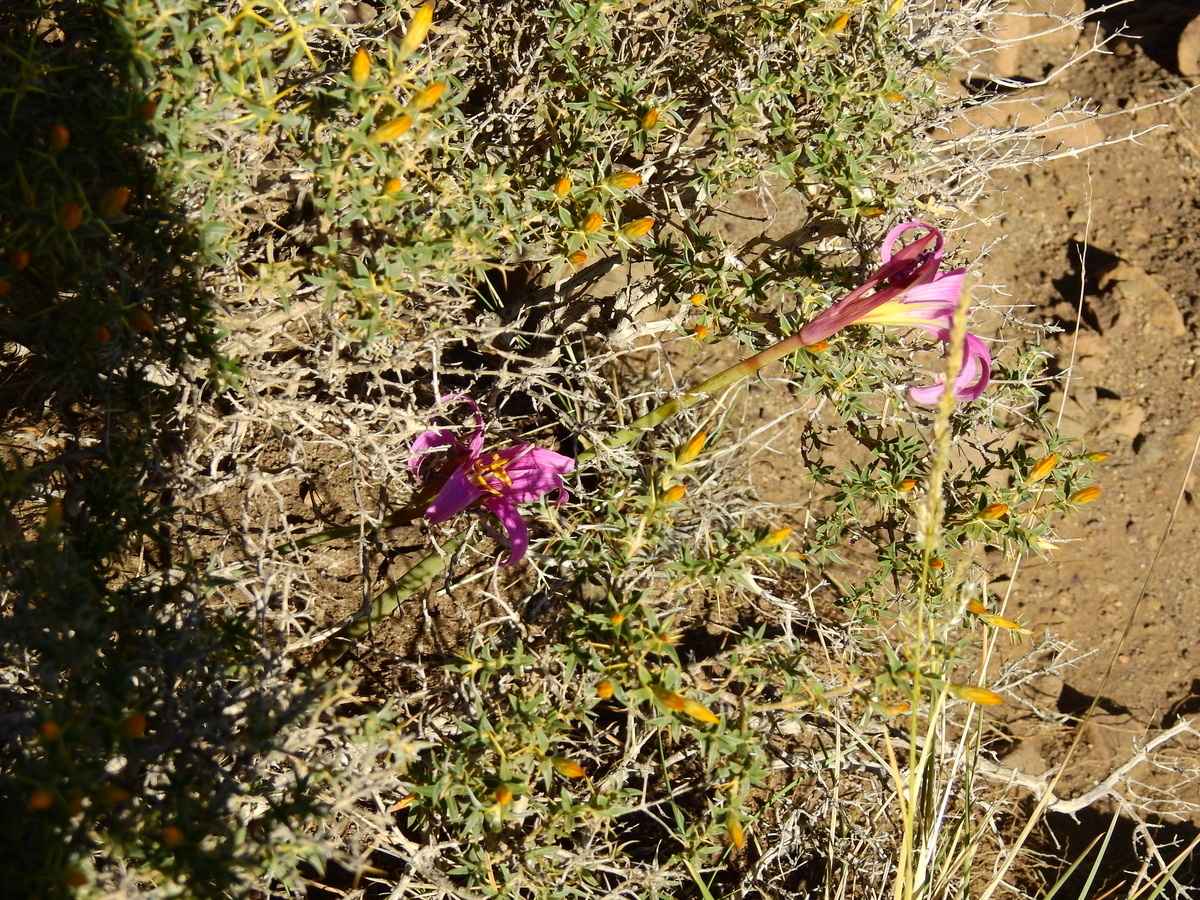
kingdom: Plantae
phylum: Tracheophyta
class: Liliopsida
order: Asparagales
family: Amaryllidaceae
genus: Rhodolirium
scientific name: Rhodolirium montanum
